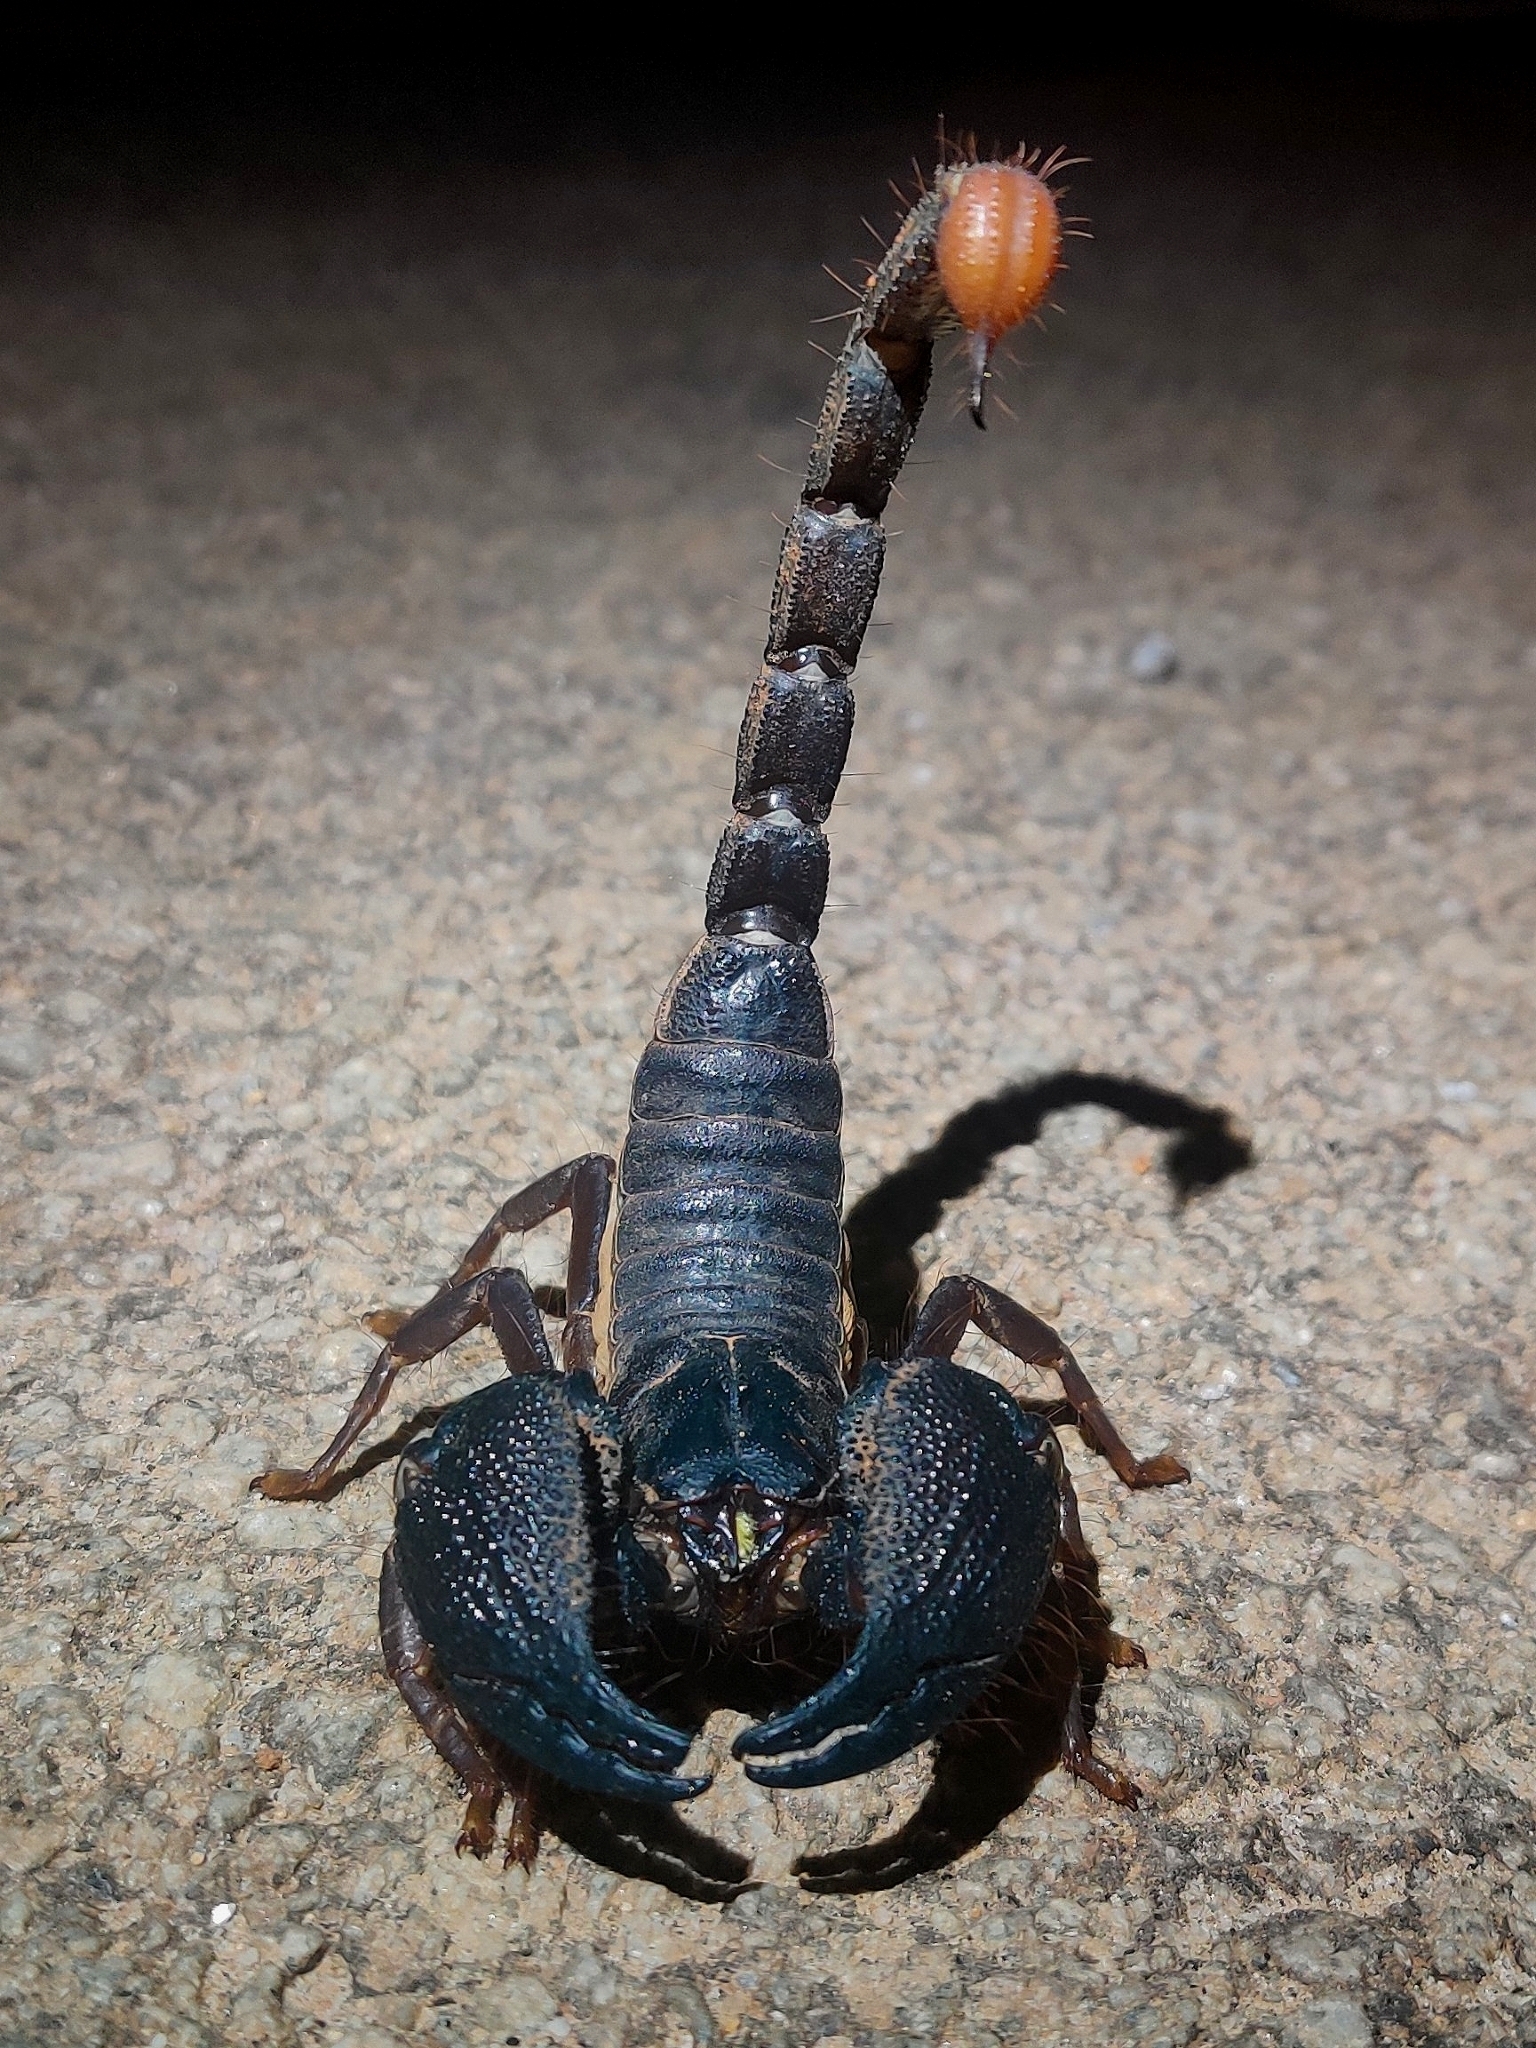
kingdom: Animalia
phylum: Arthropoda
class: Arachnida
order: Scorpiones
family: Scorpionidae
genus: Gigantometrus
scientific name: Gigantometrus swammerdami
